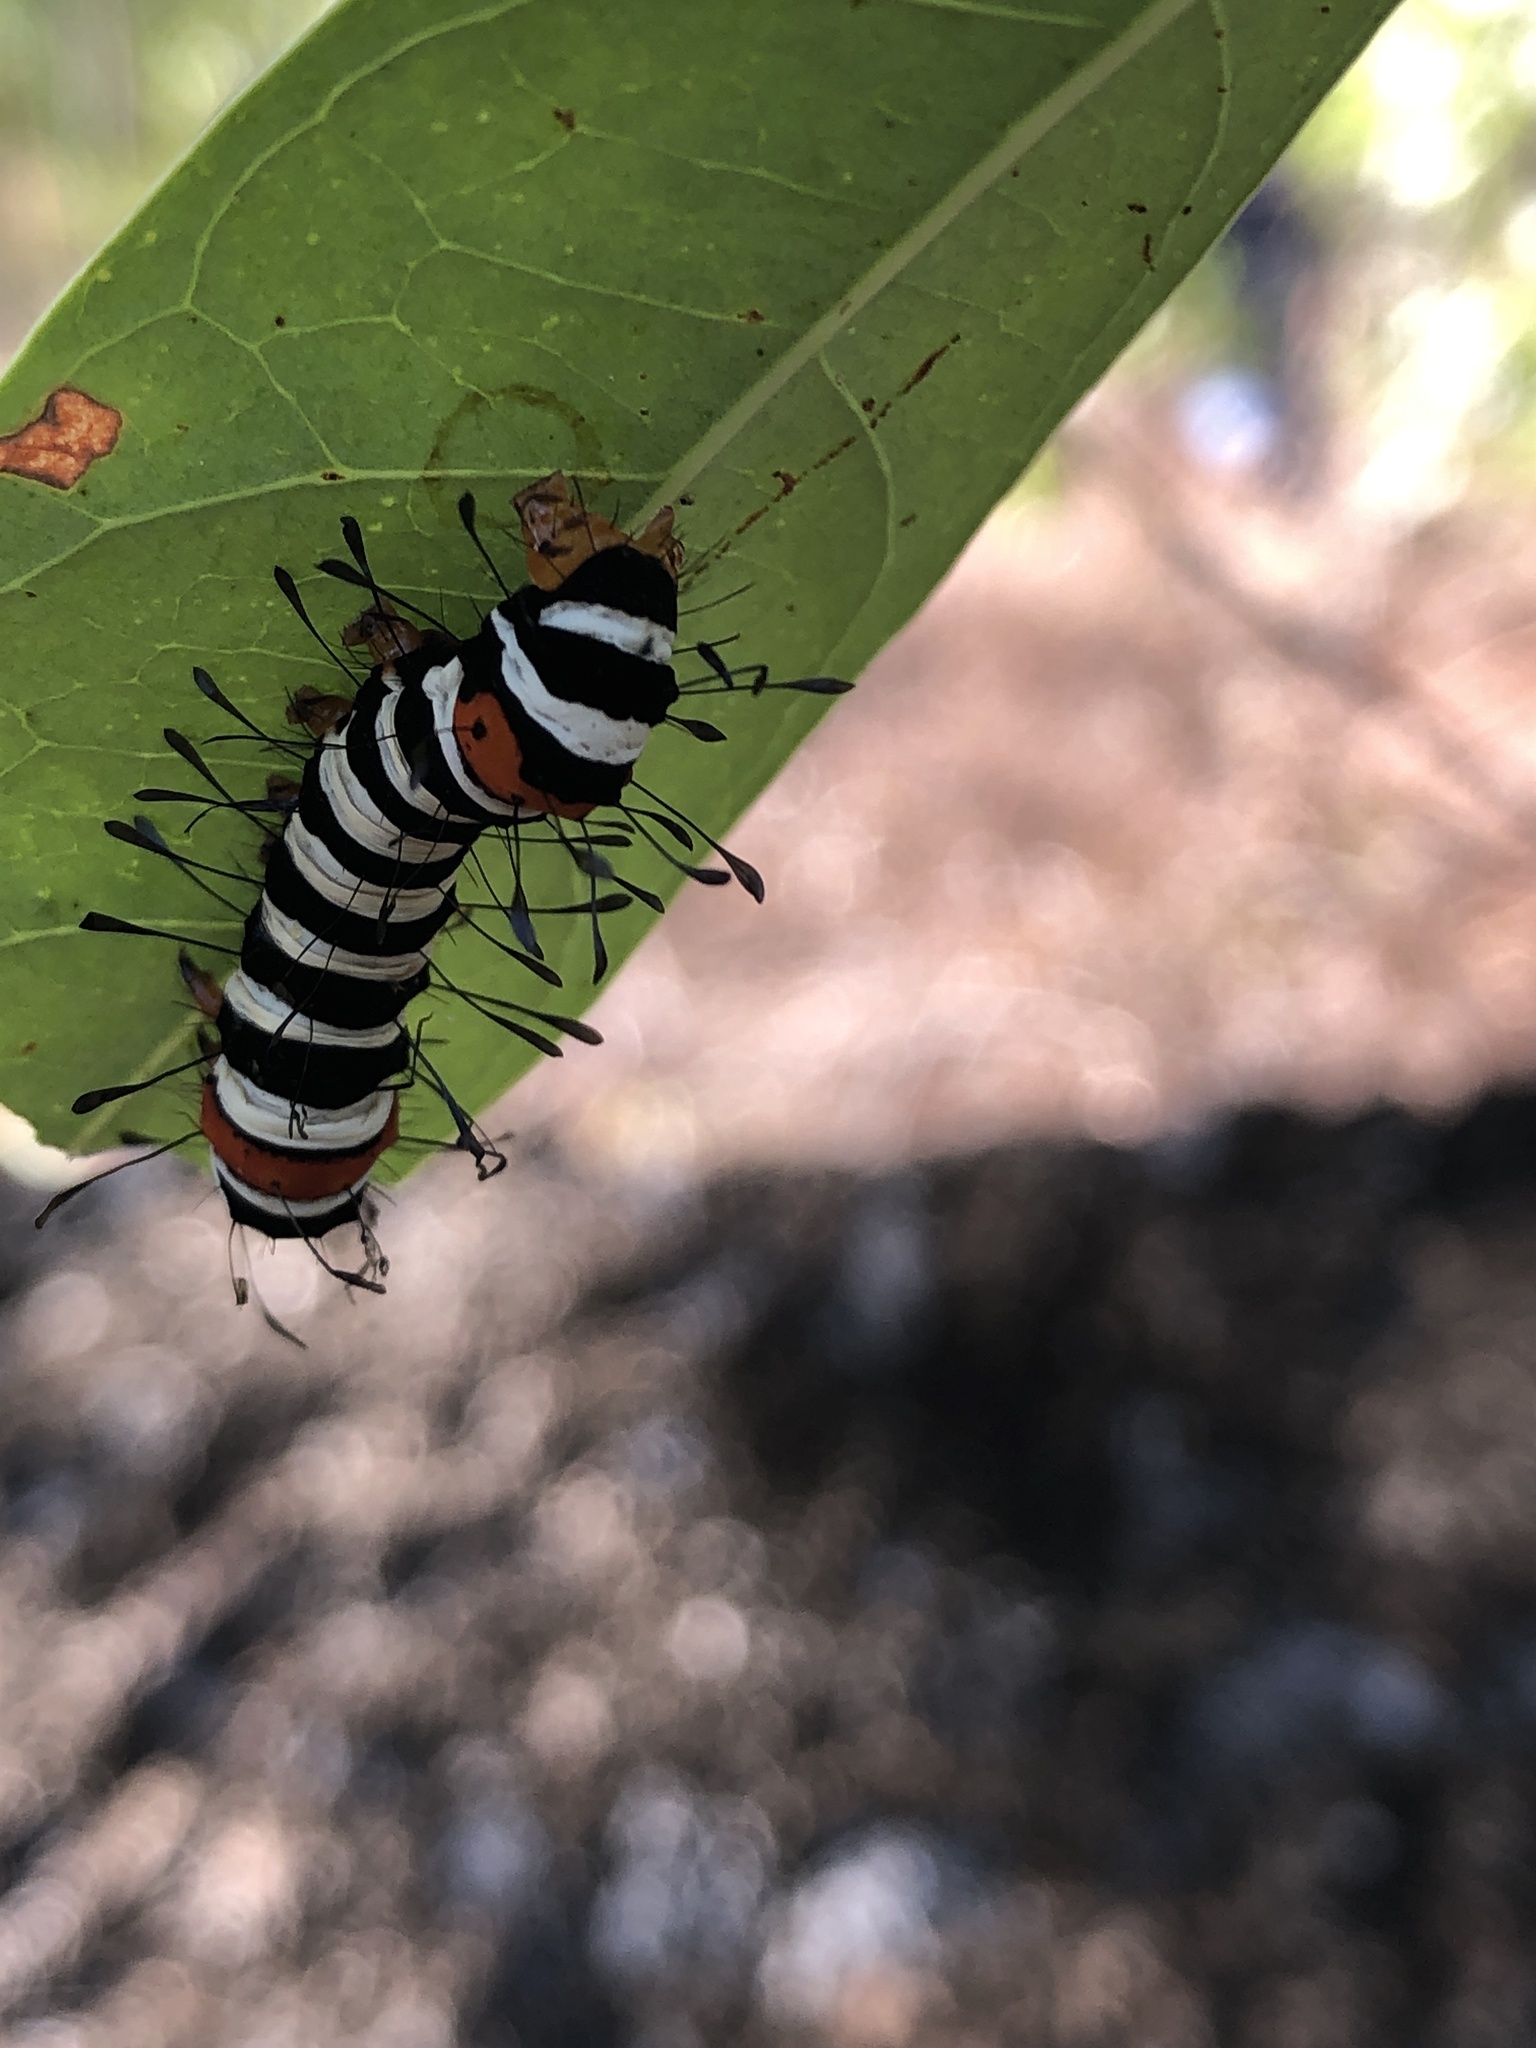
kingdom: Animalia
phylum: Arthropoda
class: Insecta
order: Lepidoptera
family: Noctuidae
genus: Agarista
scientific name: Agarista agricola
